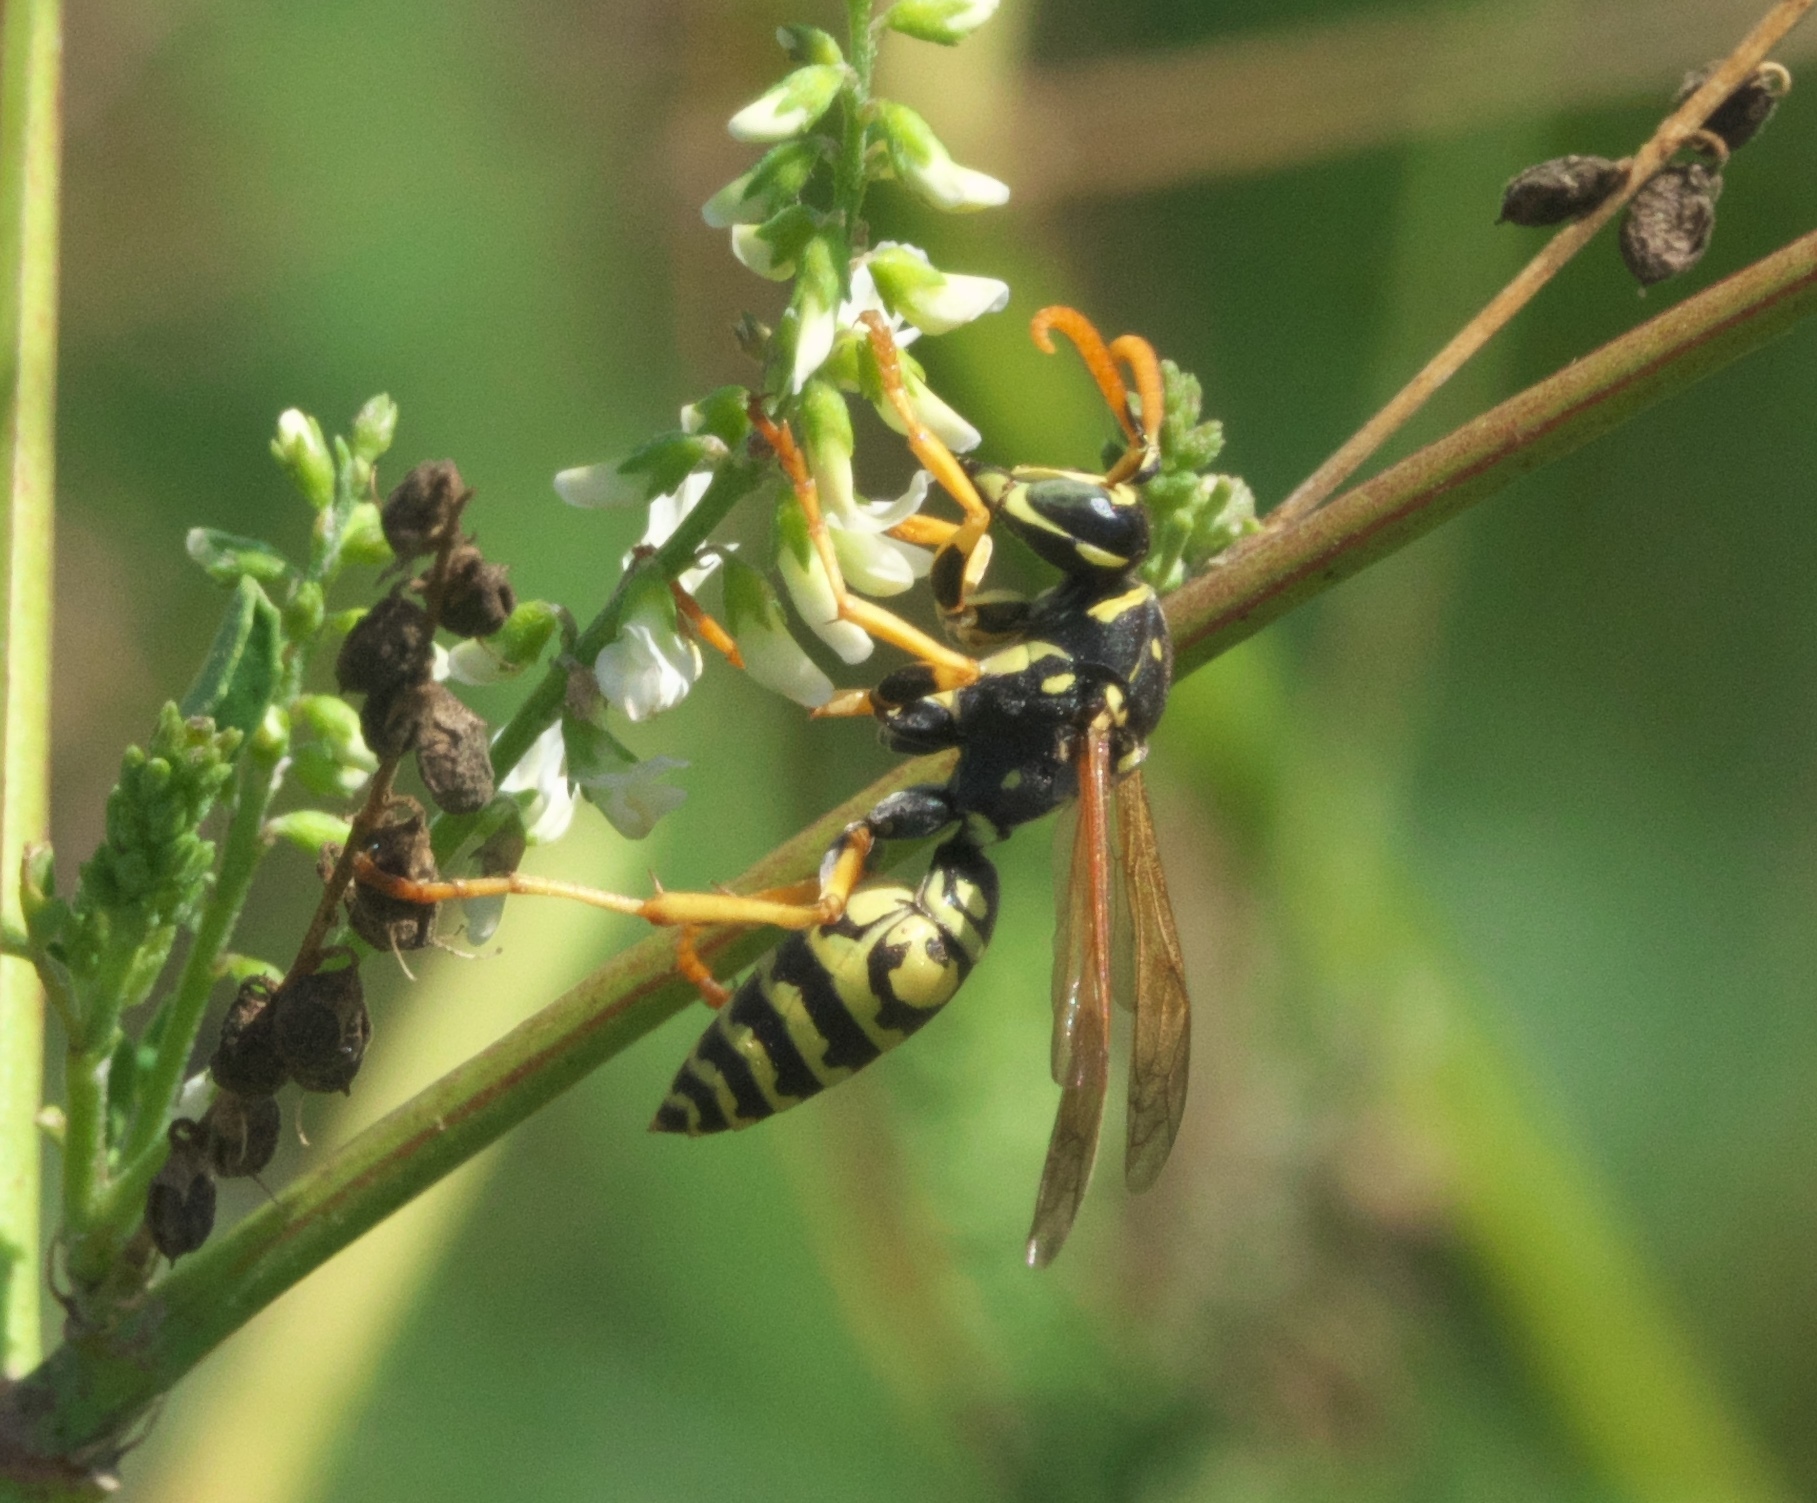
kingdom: Animalia
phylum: Arthropoda
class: Insecta
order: Hymenoptera
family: Eumenidae
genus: Polistes
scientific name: Polistes dominula
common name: Paper wasp
